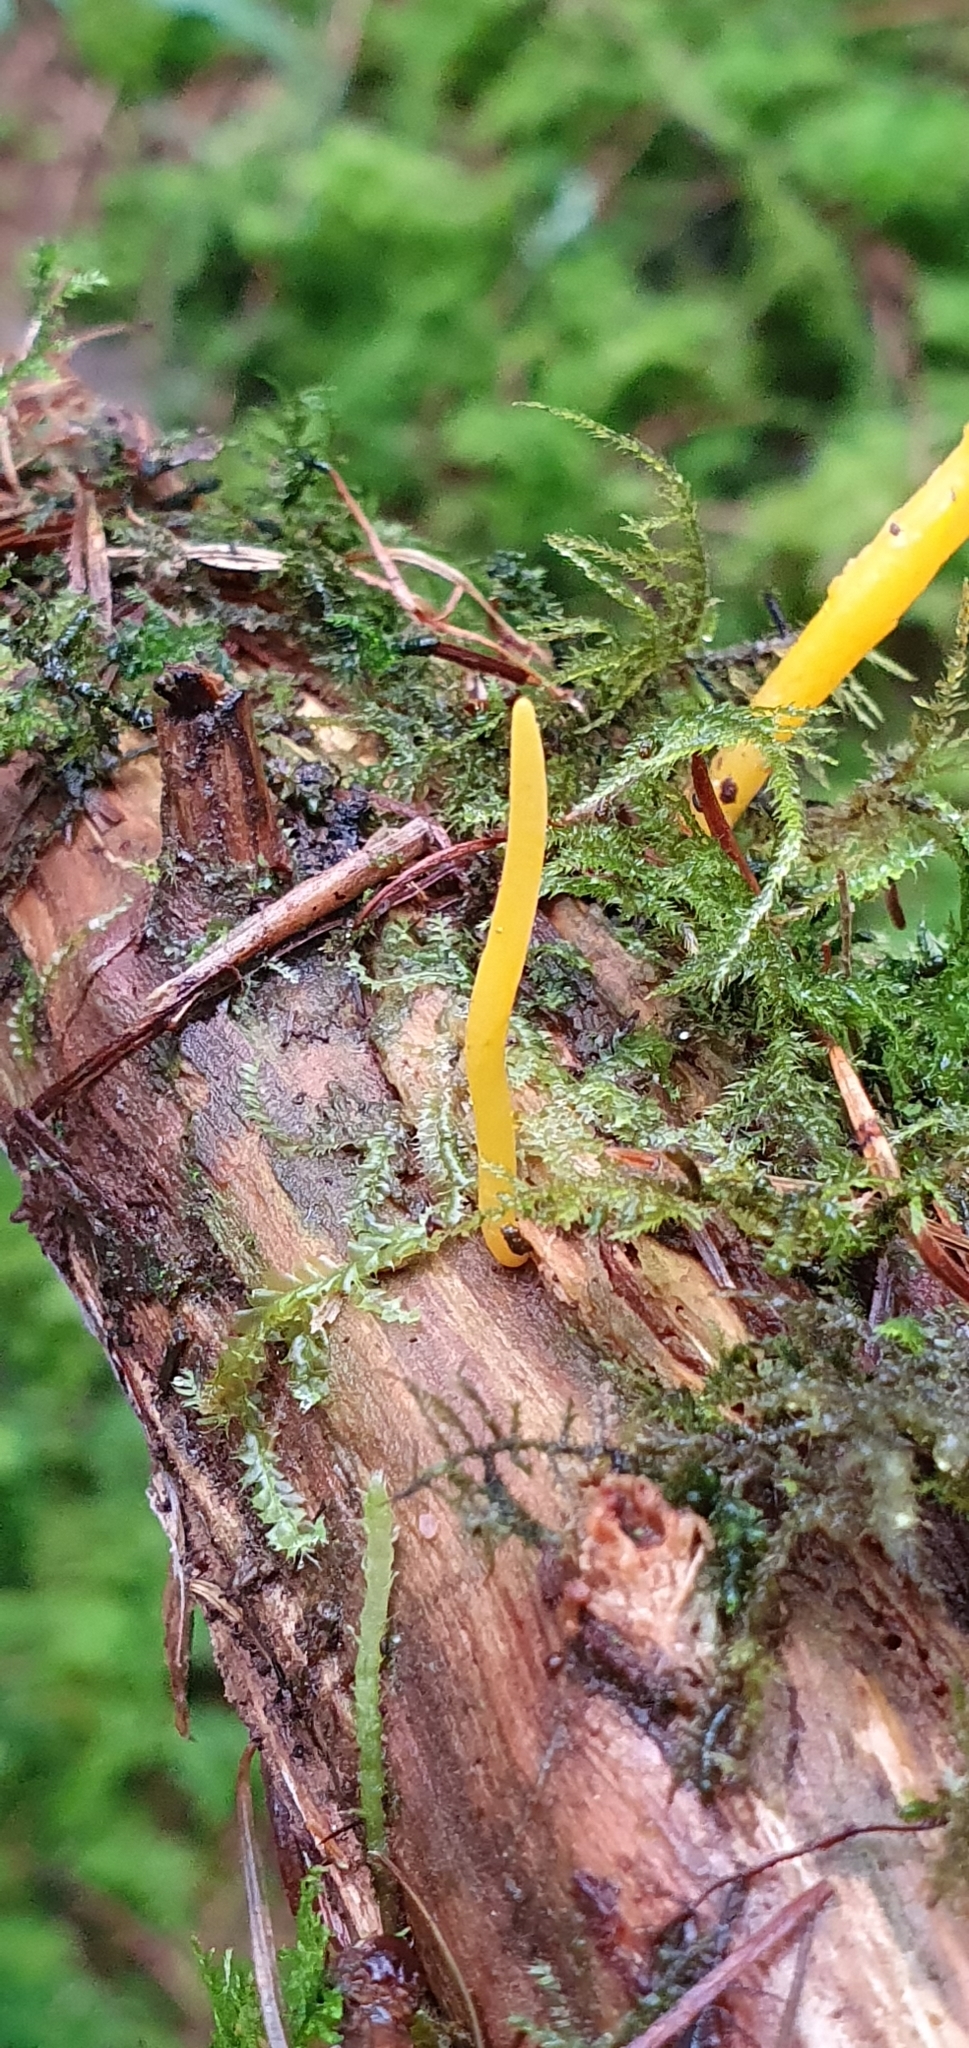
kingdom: Fungi
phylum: Basidiomycota
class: Dacrymycetes
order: Dacrymycetales
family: Dacrymycetaceae
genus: Calocera
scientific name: Calocera viscosa
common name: Yellow stagshorn
